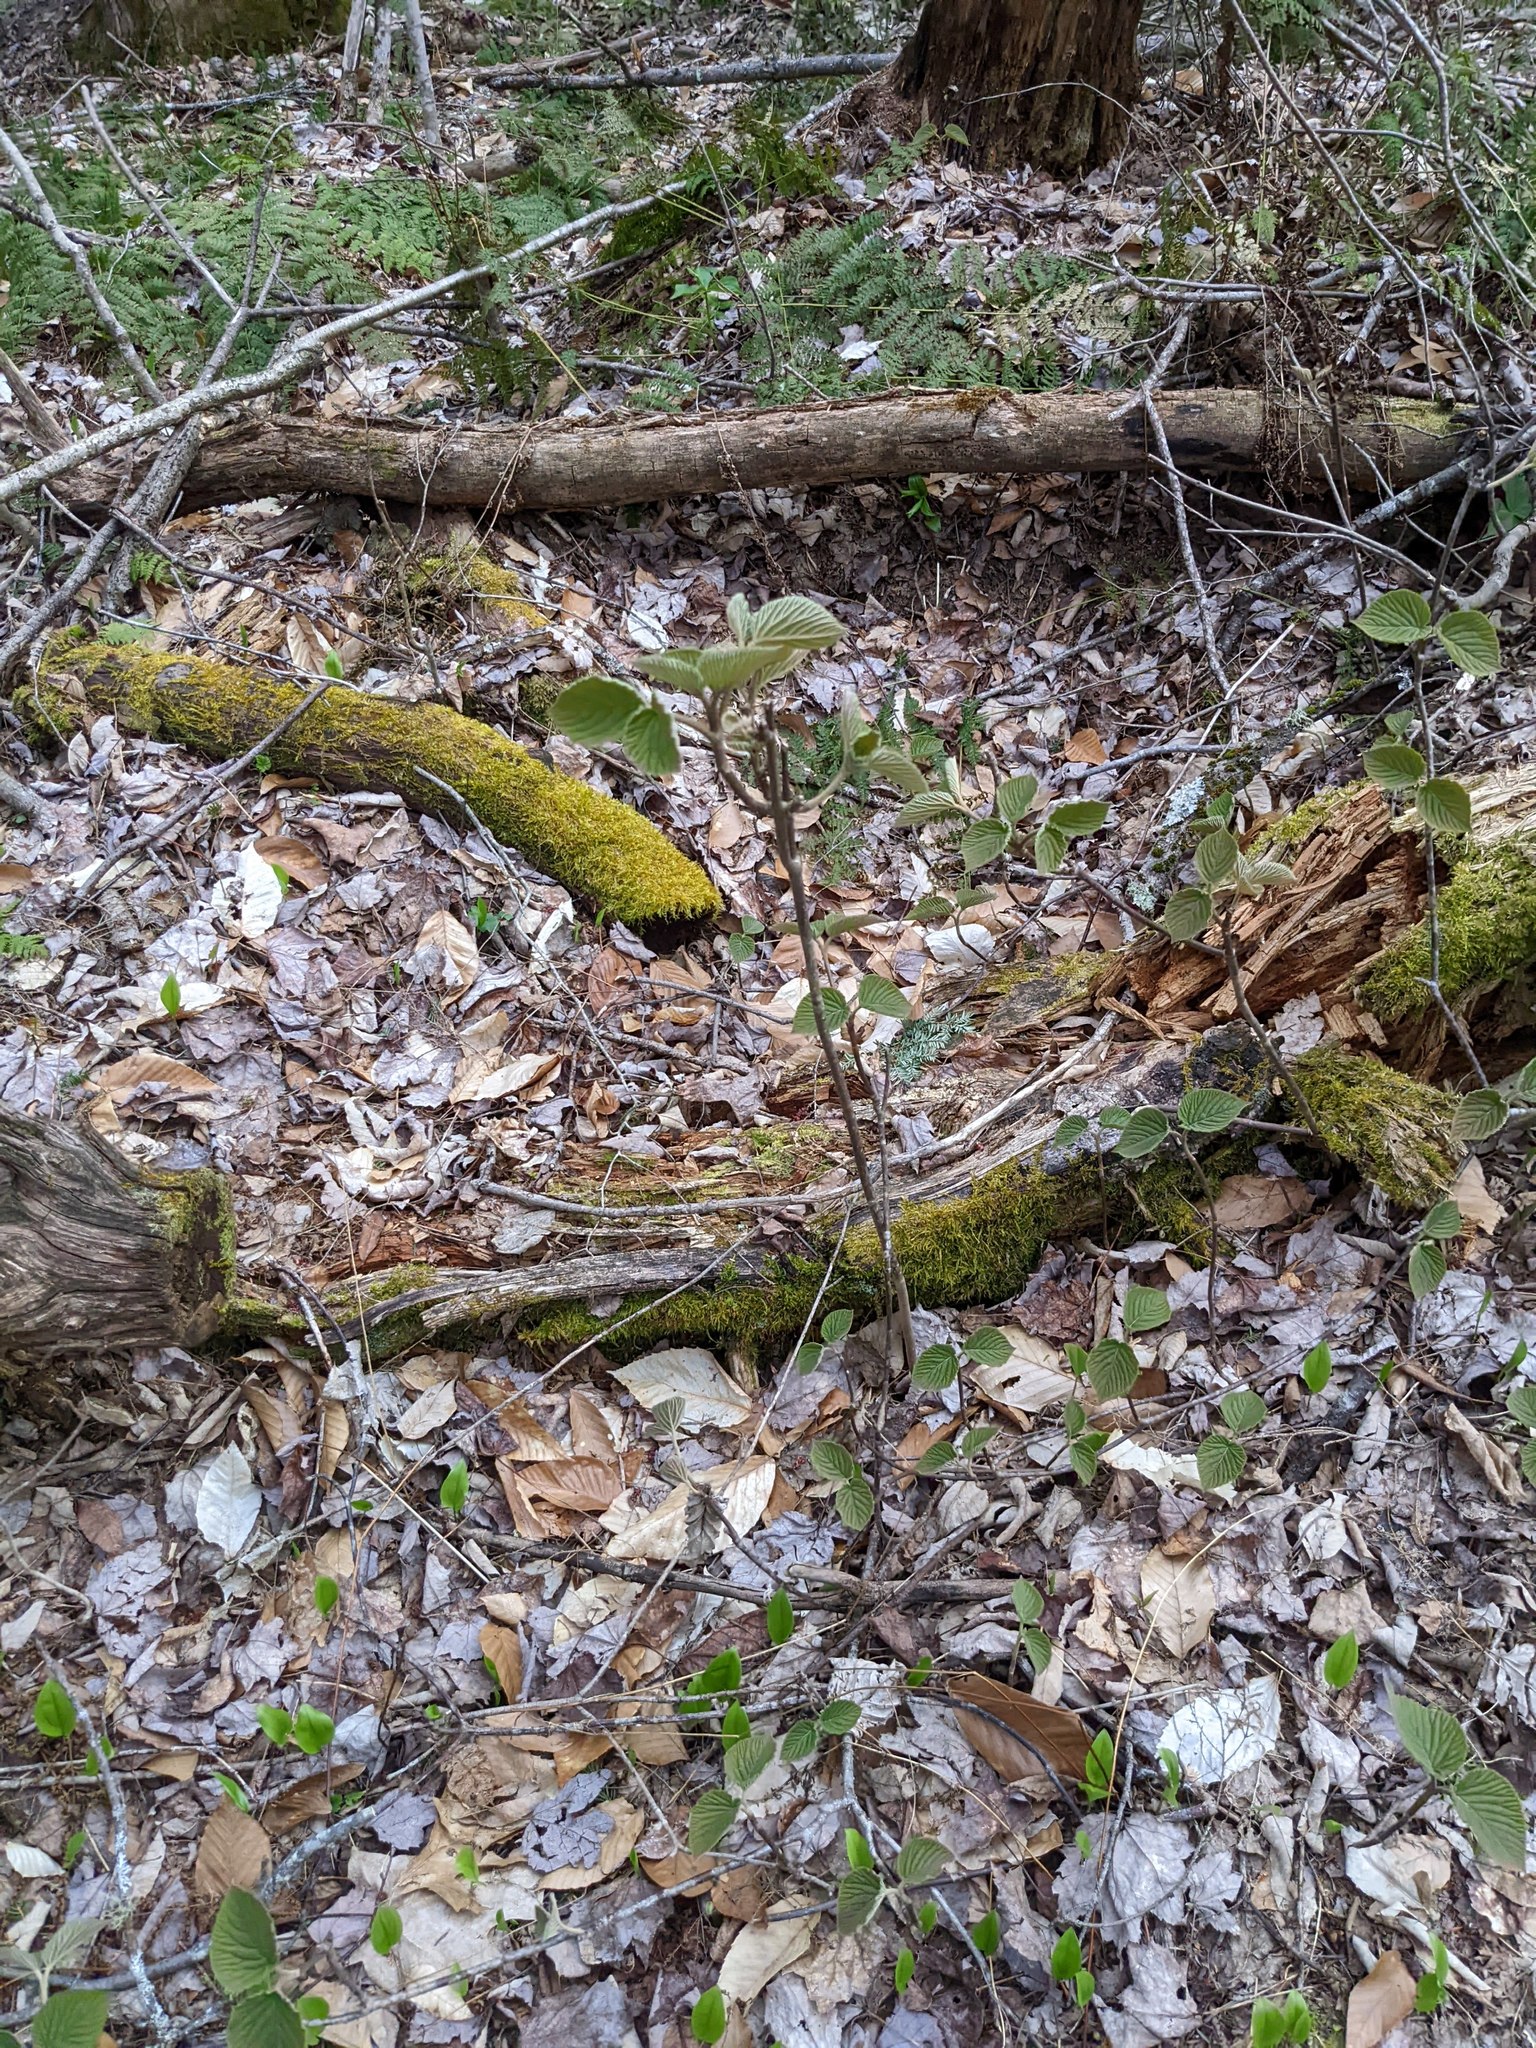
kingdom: Plantae
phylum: Tracheophyta
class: Magnoliopsida
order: Dipsacales
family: Viburnaceae
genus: Viburnum
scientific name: Viburnum lantanoides
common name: Hobblebush
